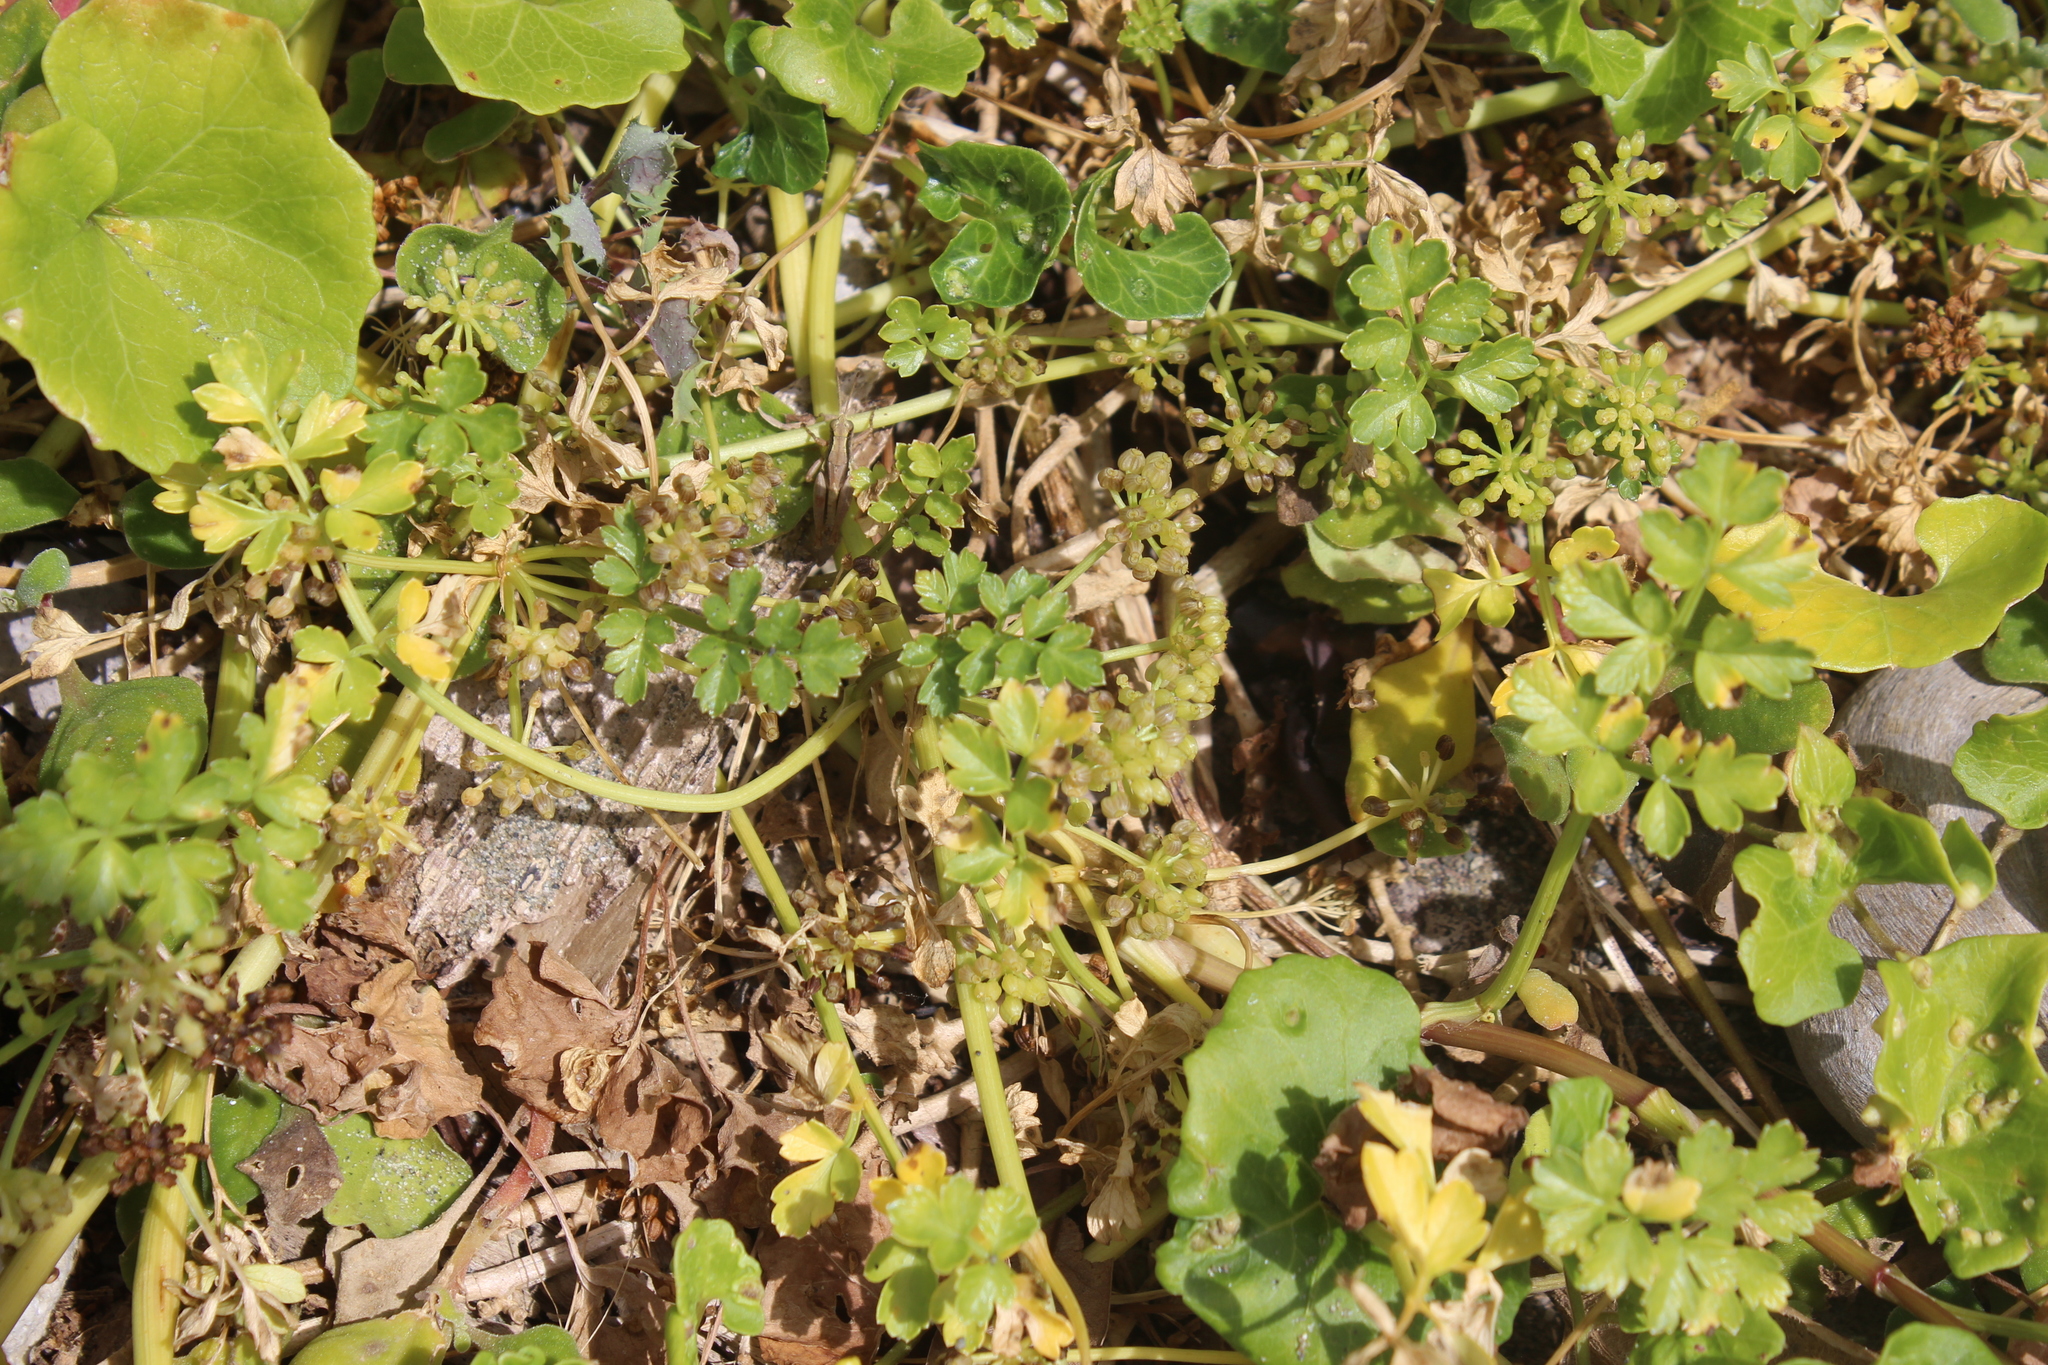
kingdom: Plantae
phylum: Tracheophyta
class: Magnoliopsida
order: Apiales
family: Apiaceae
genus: Apium
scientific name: Apium prostratum
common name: Prostrate marshwort
